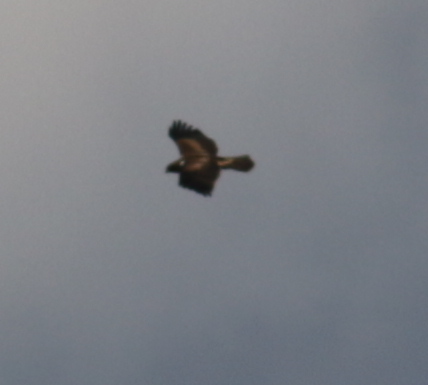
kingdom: Animalia
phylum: Chordata
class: Aves
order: Accipitriformes
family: Accipitridae
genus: Hieraaetus
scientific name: Hieraaetus pennatus
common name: Booted eagle
